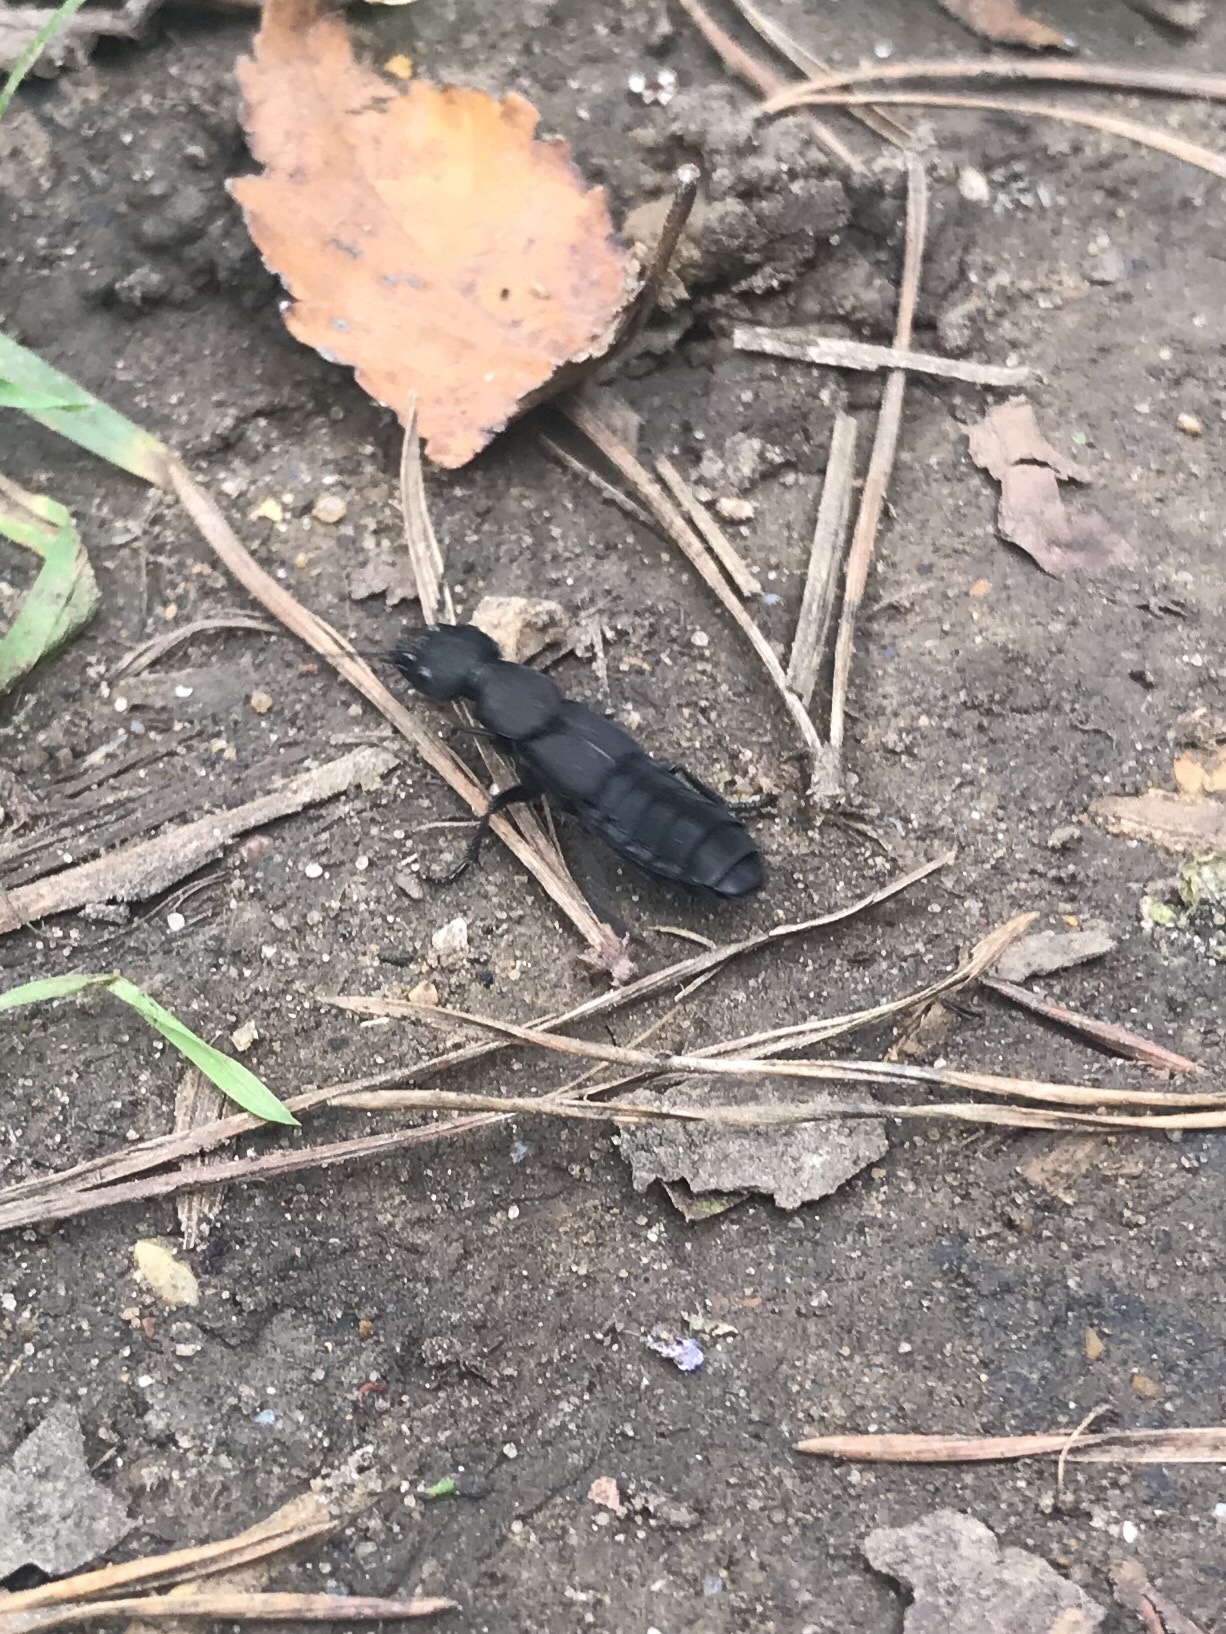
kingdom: Animalia
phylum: Arthropoda
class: Insecta
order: Coleoptera
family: Staphylinidae
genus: Ocypus
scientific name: Ocypus olens
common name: Devil's coach-horse
